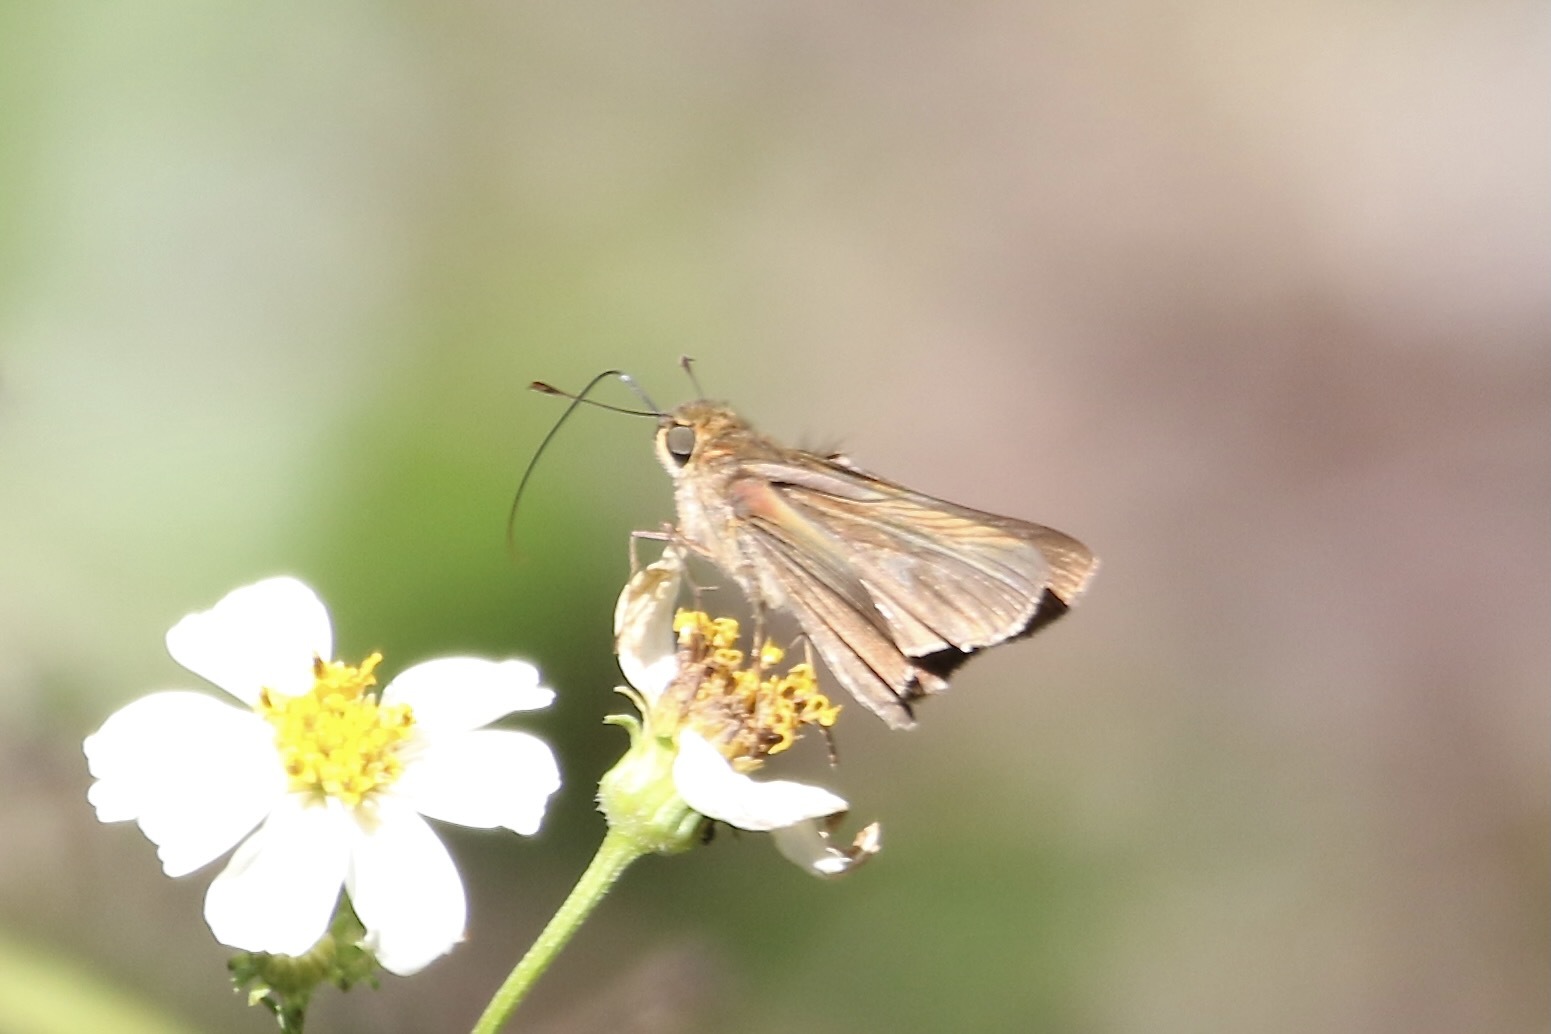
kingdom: Animalia
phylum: Arthropoda
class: Insecta
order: Lepidoptera
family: Hesperiidae
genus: Panoquina
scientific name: Panoquina ocola
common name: Ocola skipper
